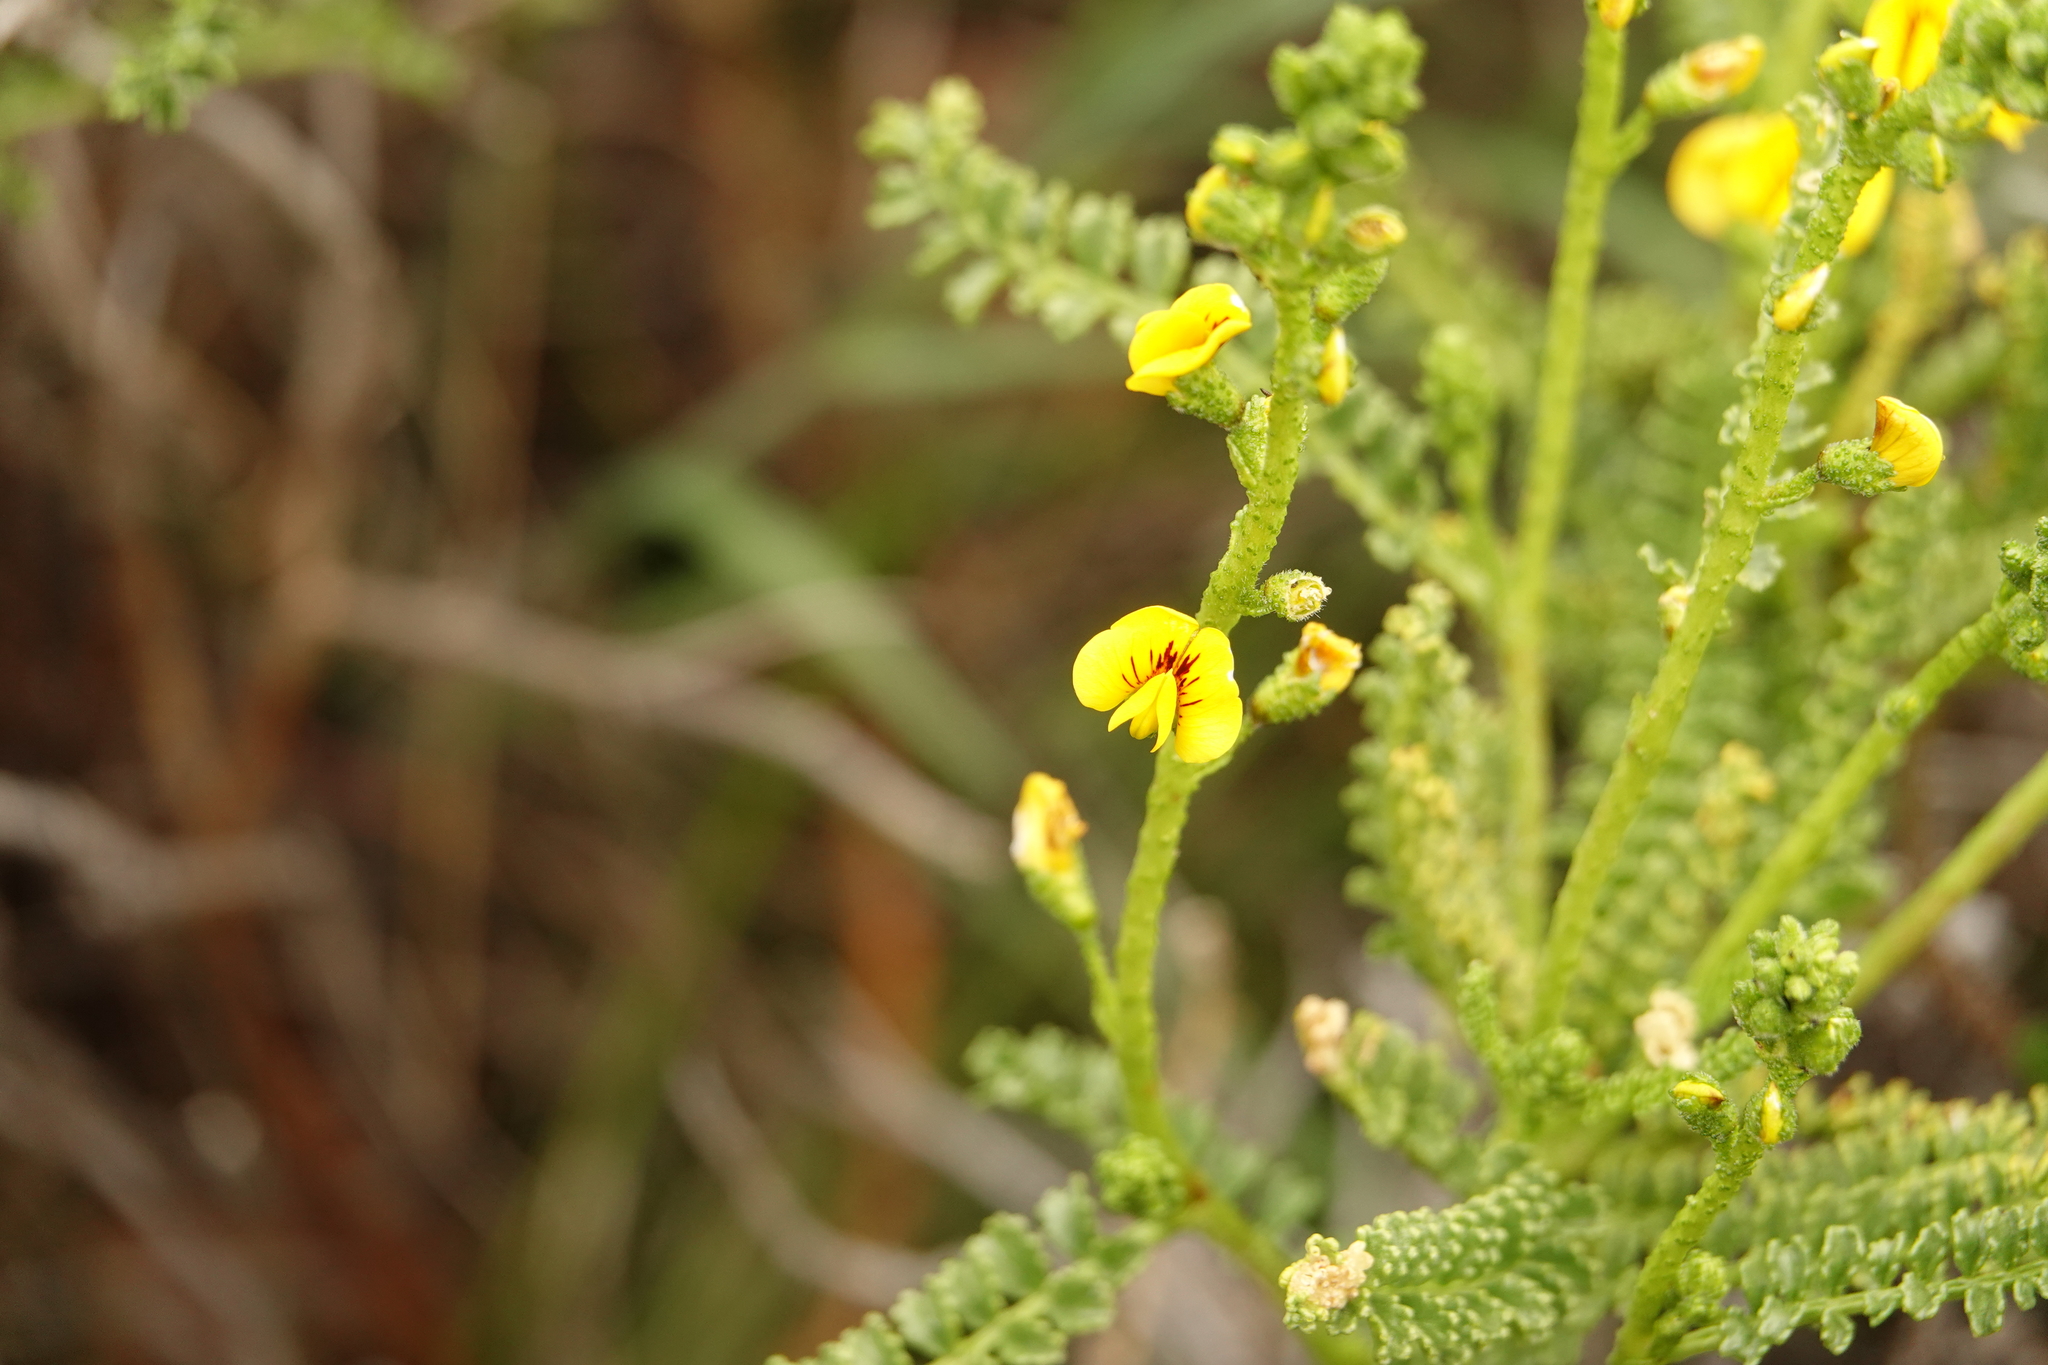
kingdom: Plantae
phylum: Tracheophyta
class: Magnoliopsida
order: Fabales
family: Fabaceae
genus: Adesmia
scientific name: Adesmia boronioides
